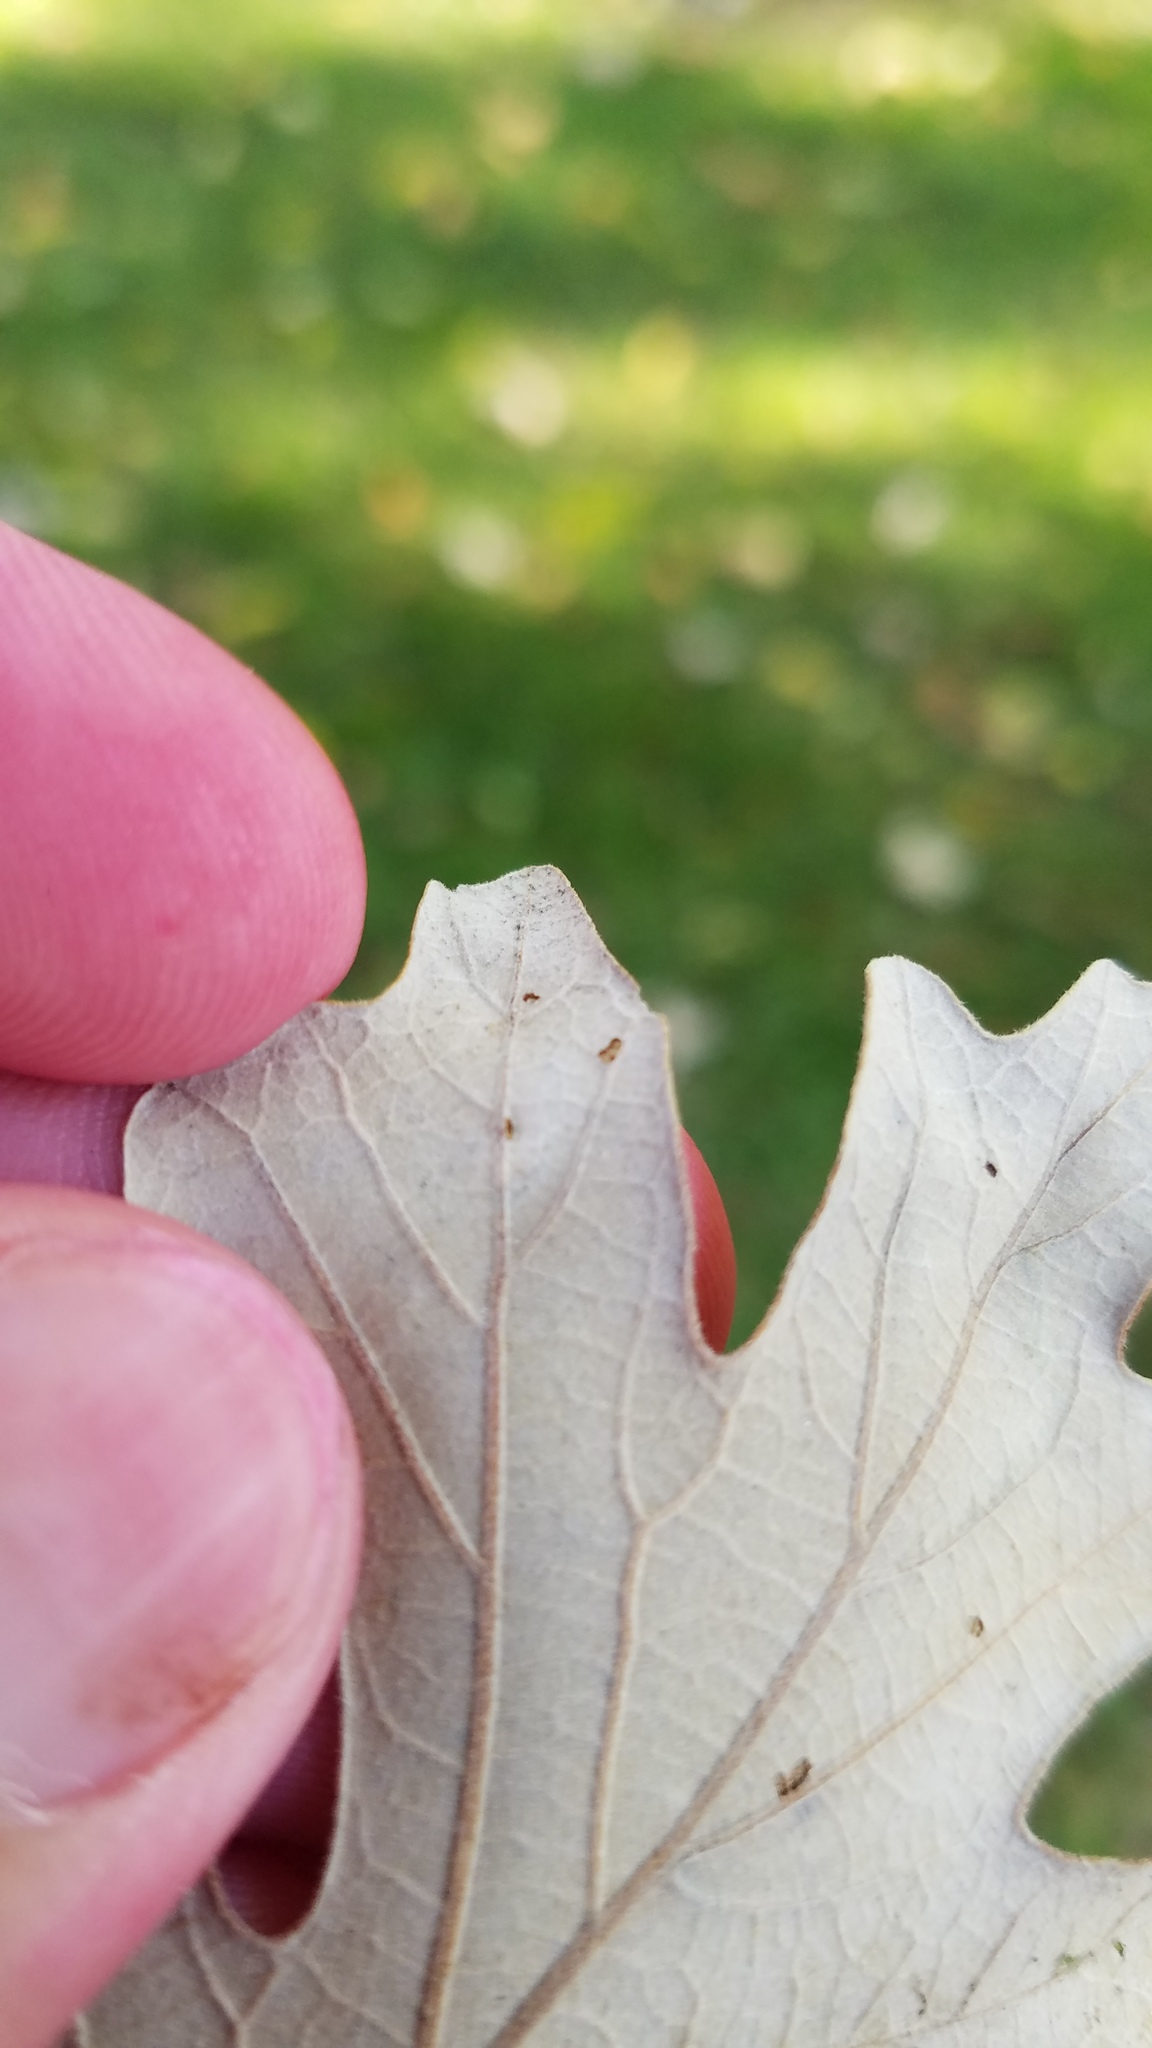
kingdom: Animalia
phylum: Arthropoda
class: Insecta
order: Hymenoptera
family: Cynipidae
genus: Acraspis
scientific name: Acraspis quercushirta
